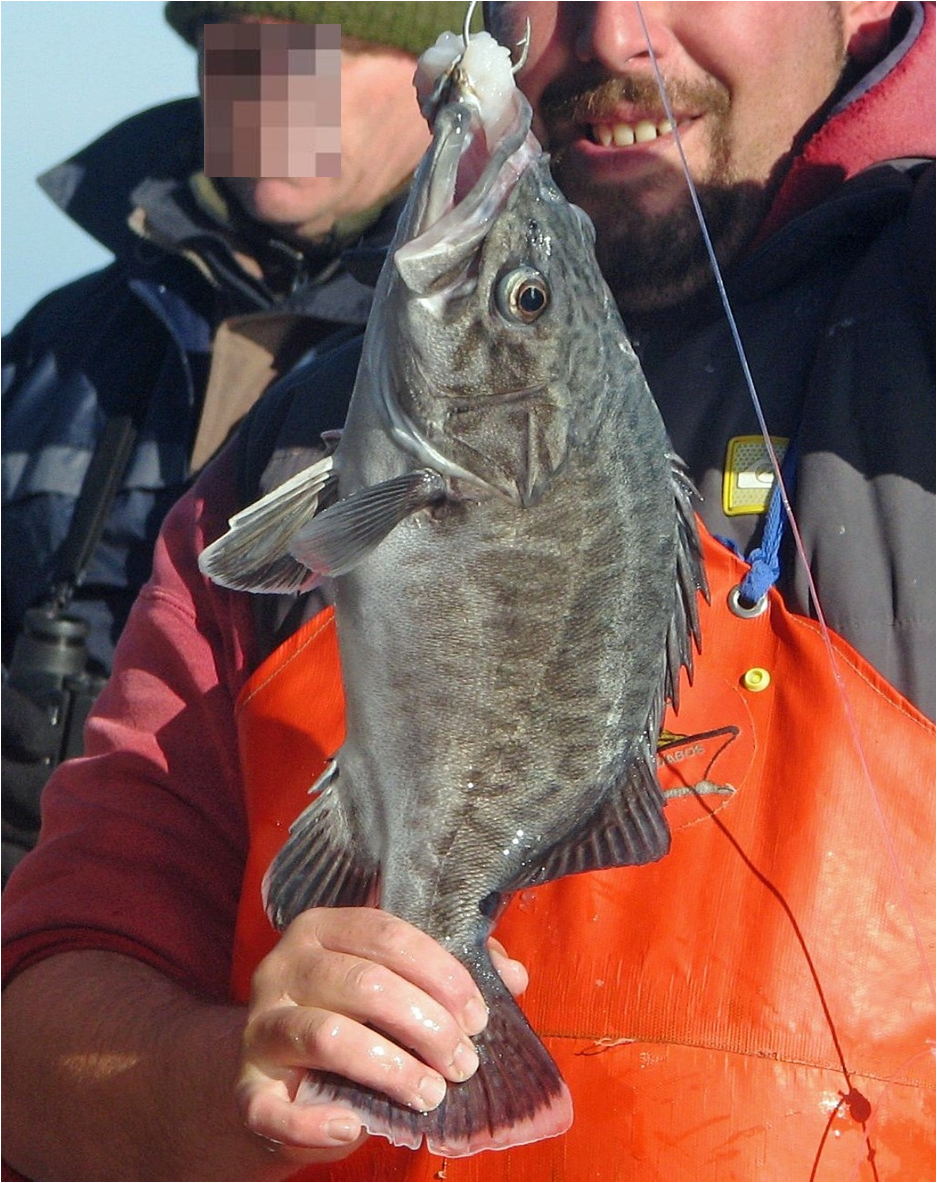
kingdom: Animalia
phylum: Chordata
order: Perciformes
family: Polyprionidae
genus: Polyprion
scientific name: Polyprion americanus
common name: Wreckfish
